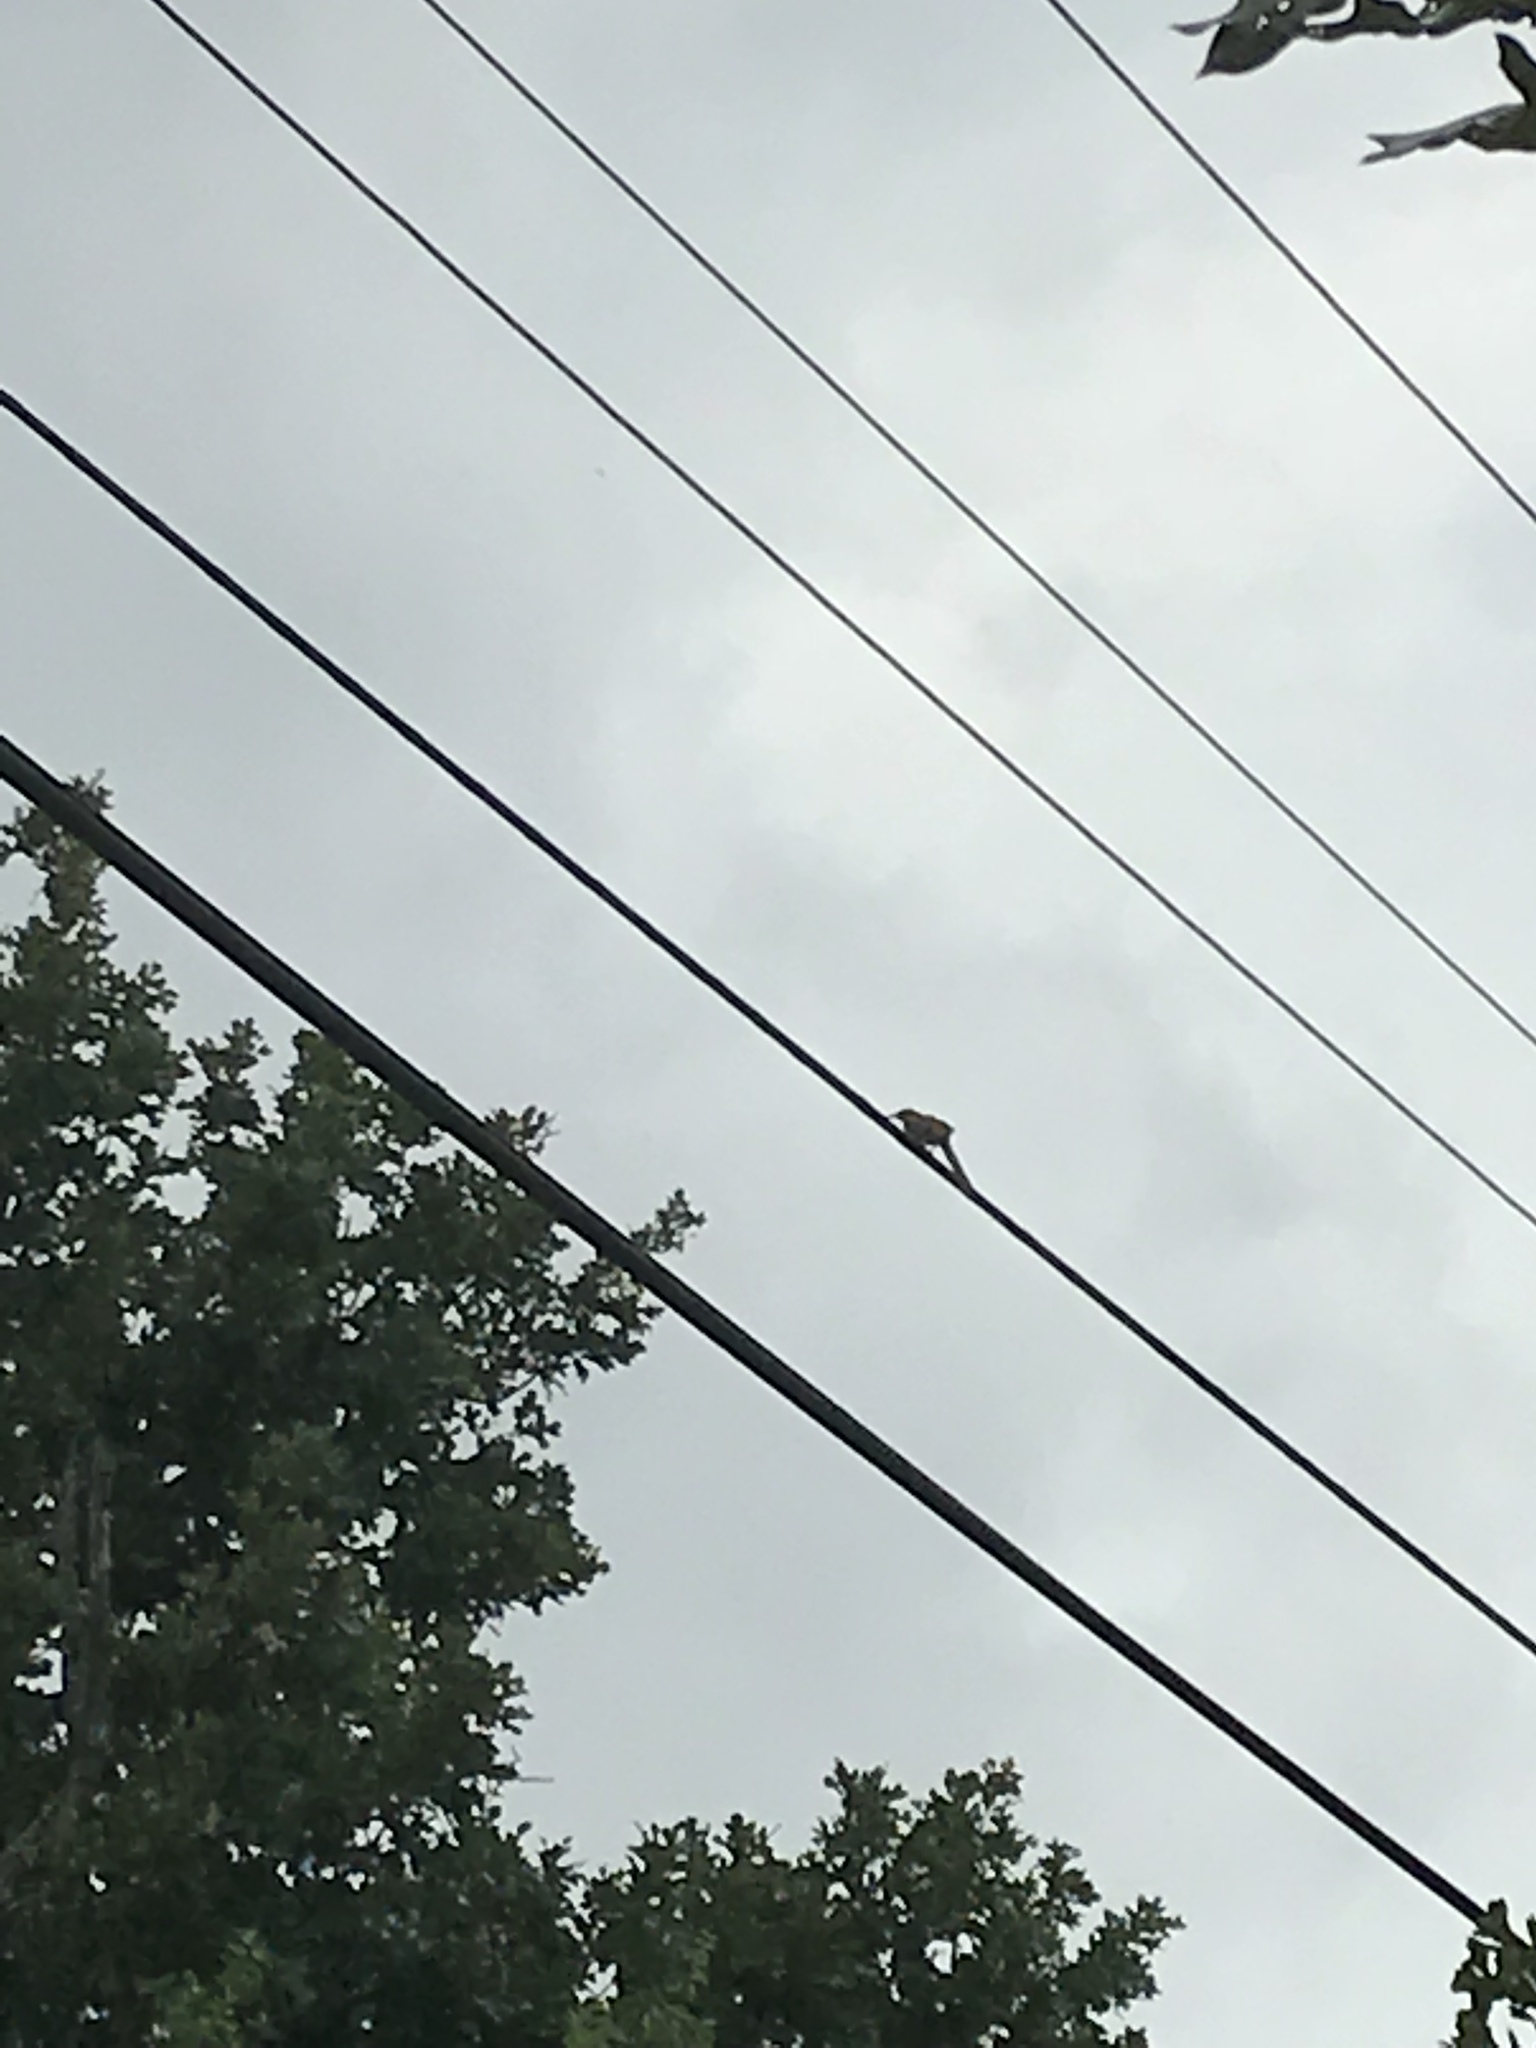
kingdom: Animalia
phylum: Chordata
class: Aves
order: Passeriformes
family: Mimidae
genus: Toxostoma
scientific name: Toxostoma rufum
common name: Brown thrasher
